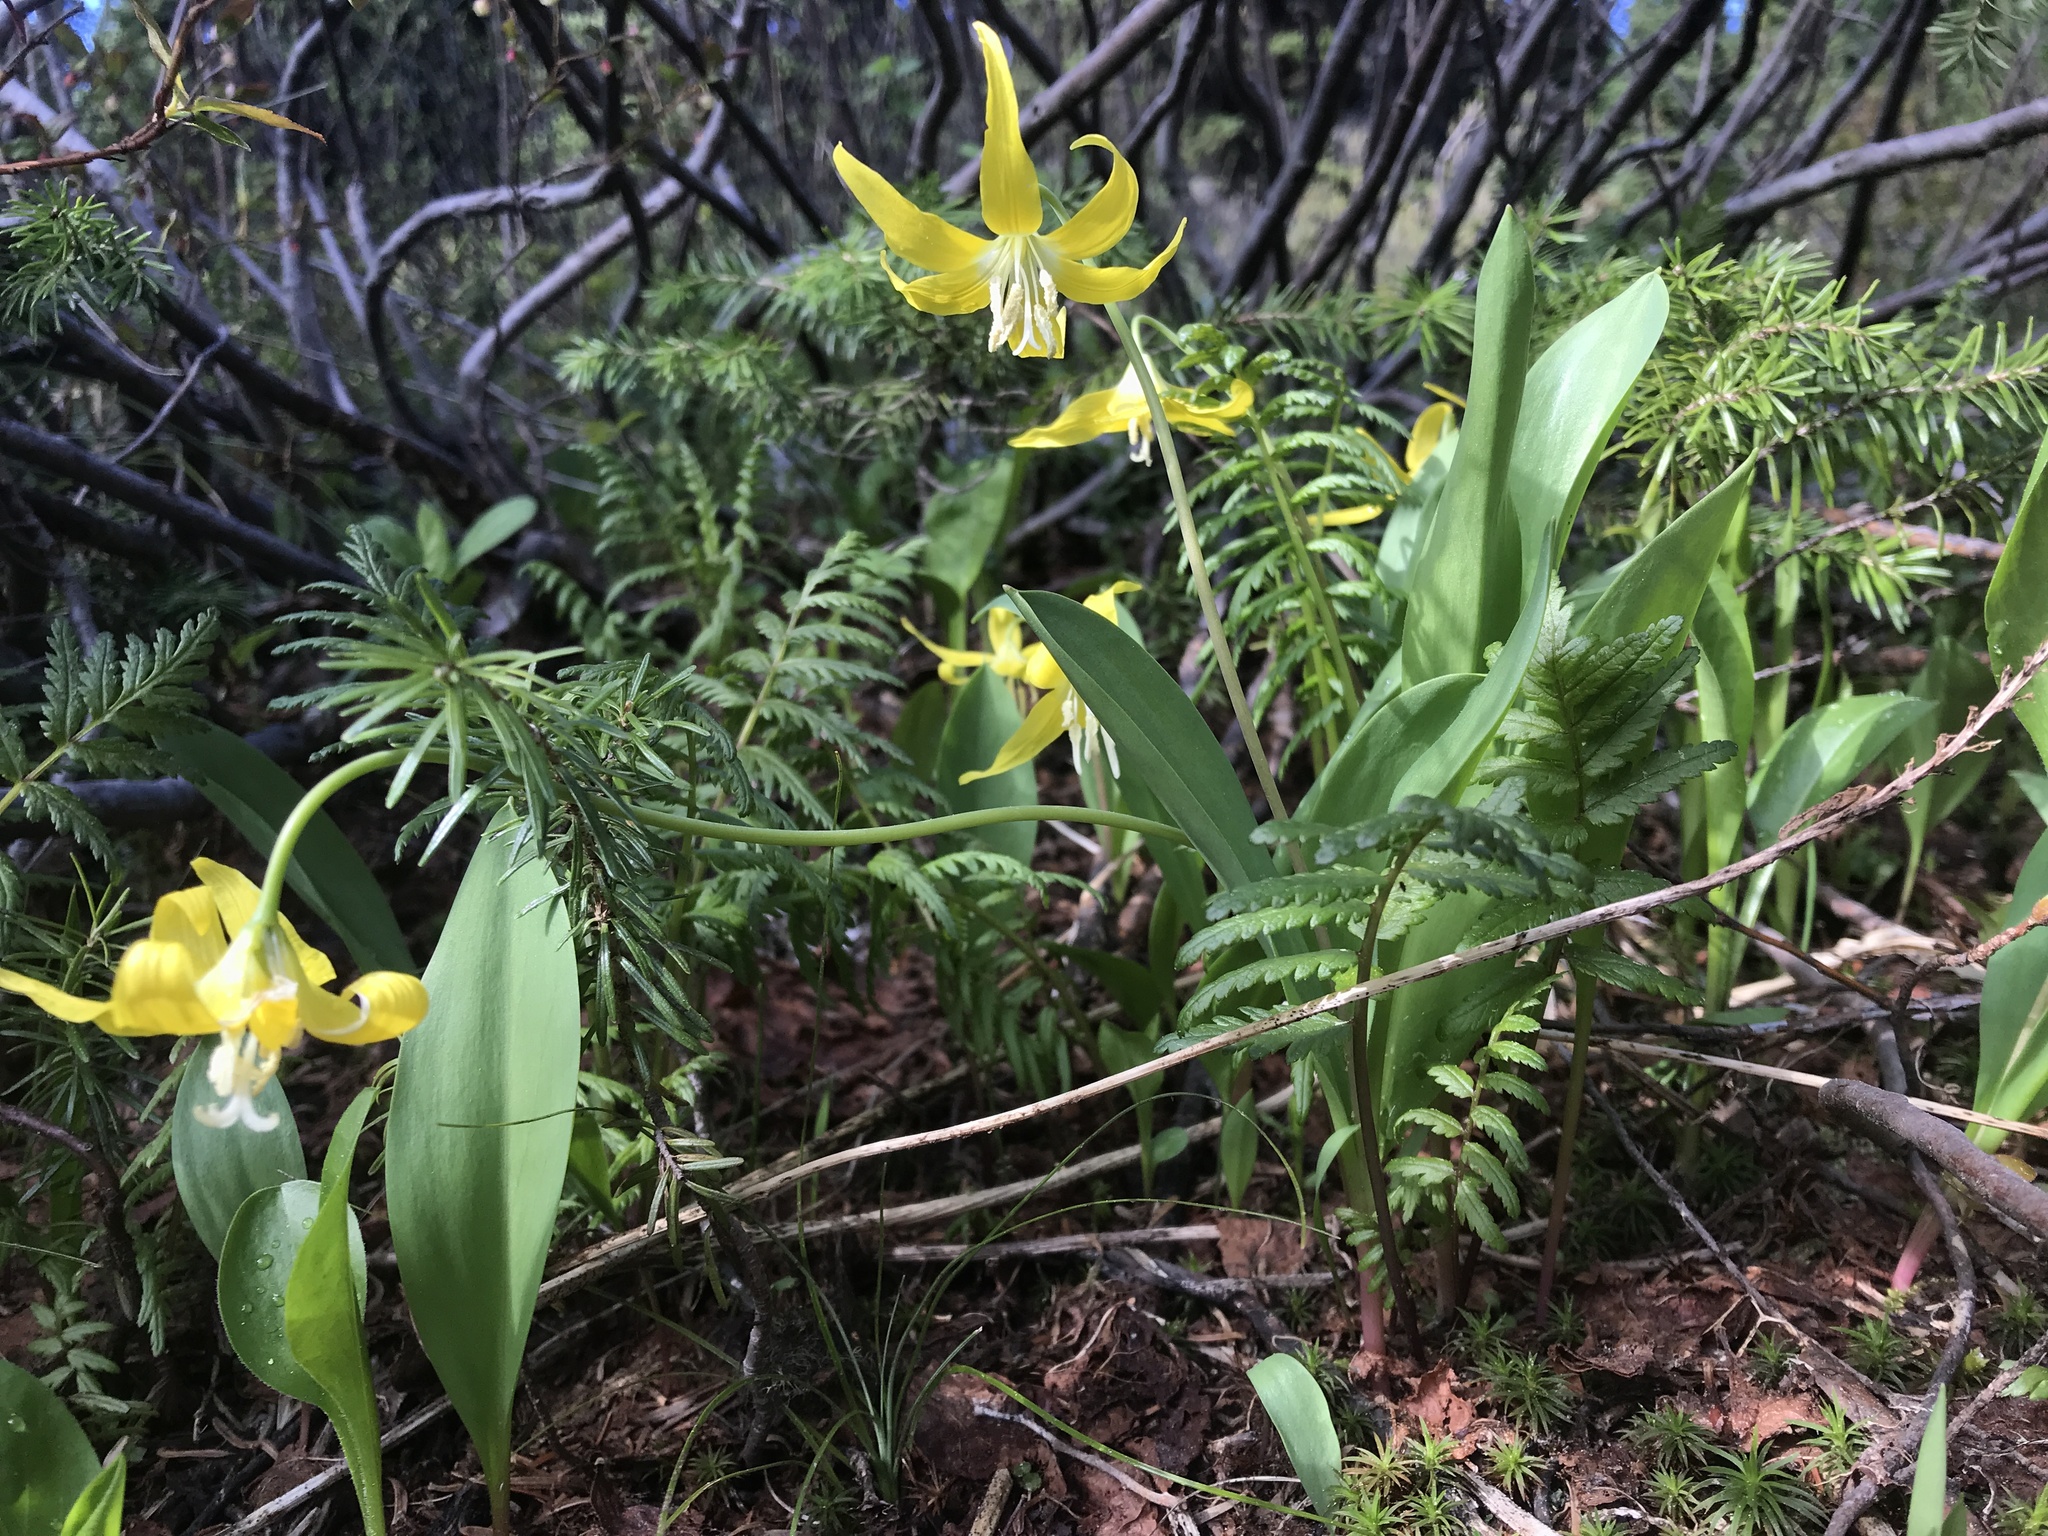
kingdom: Plantae
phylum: Tracheophyta
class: Liliopsida
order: Liliales
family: Liliaceae
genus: Erythronium
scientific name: Erythronium grandiflorum
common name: Avalanche-lily
